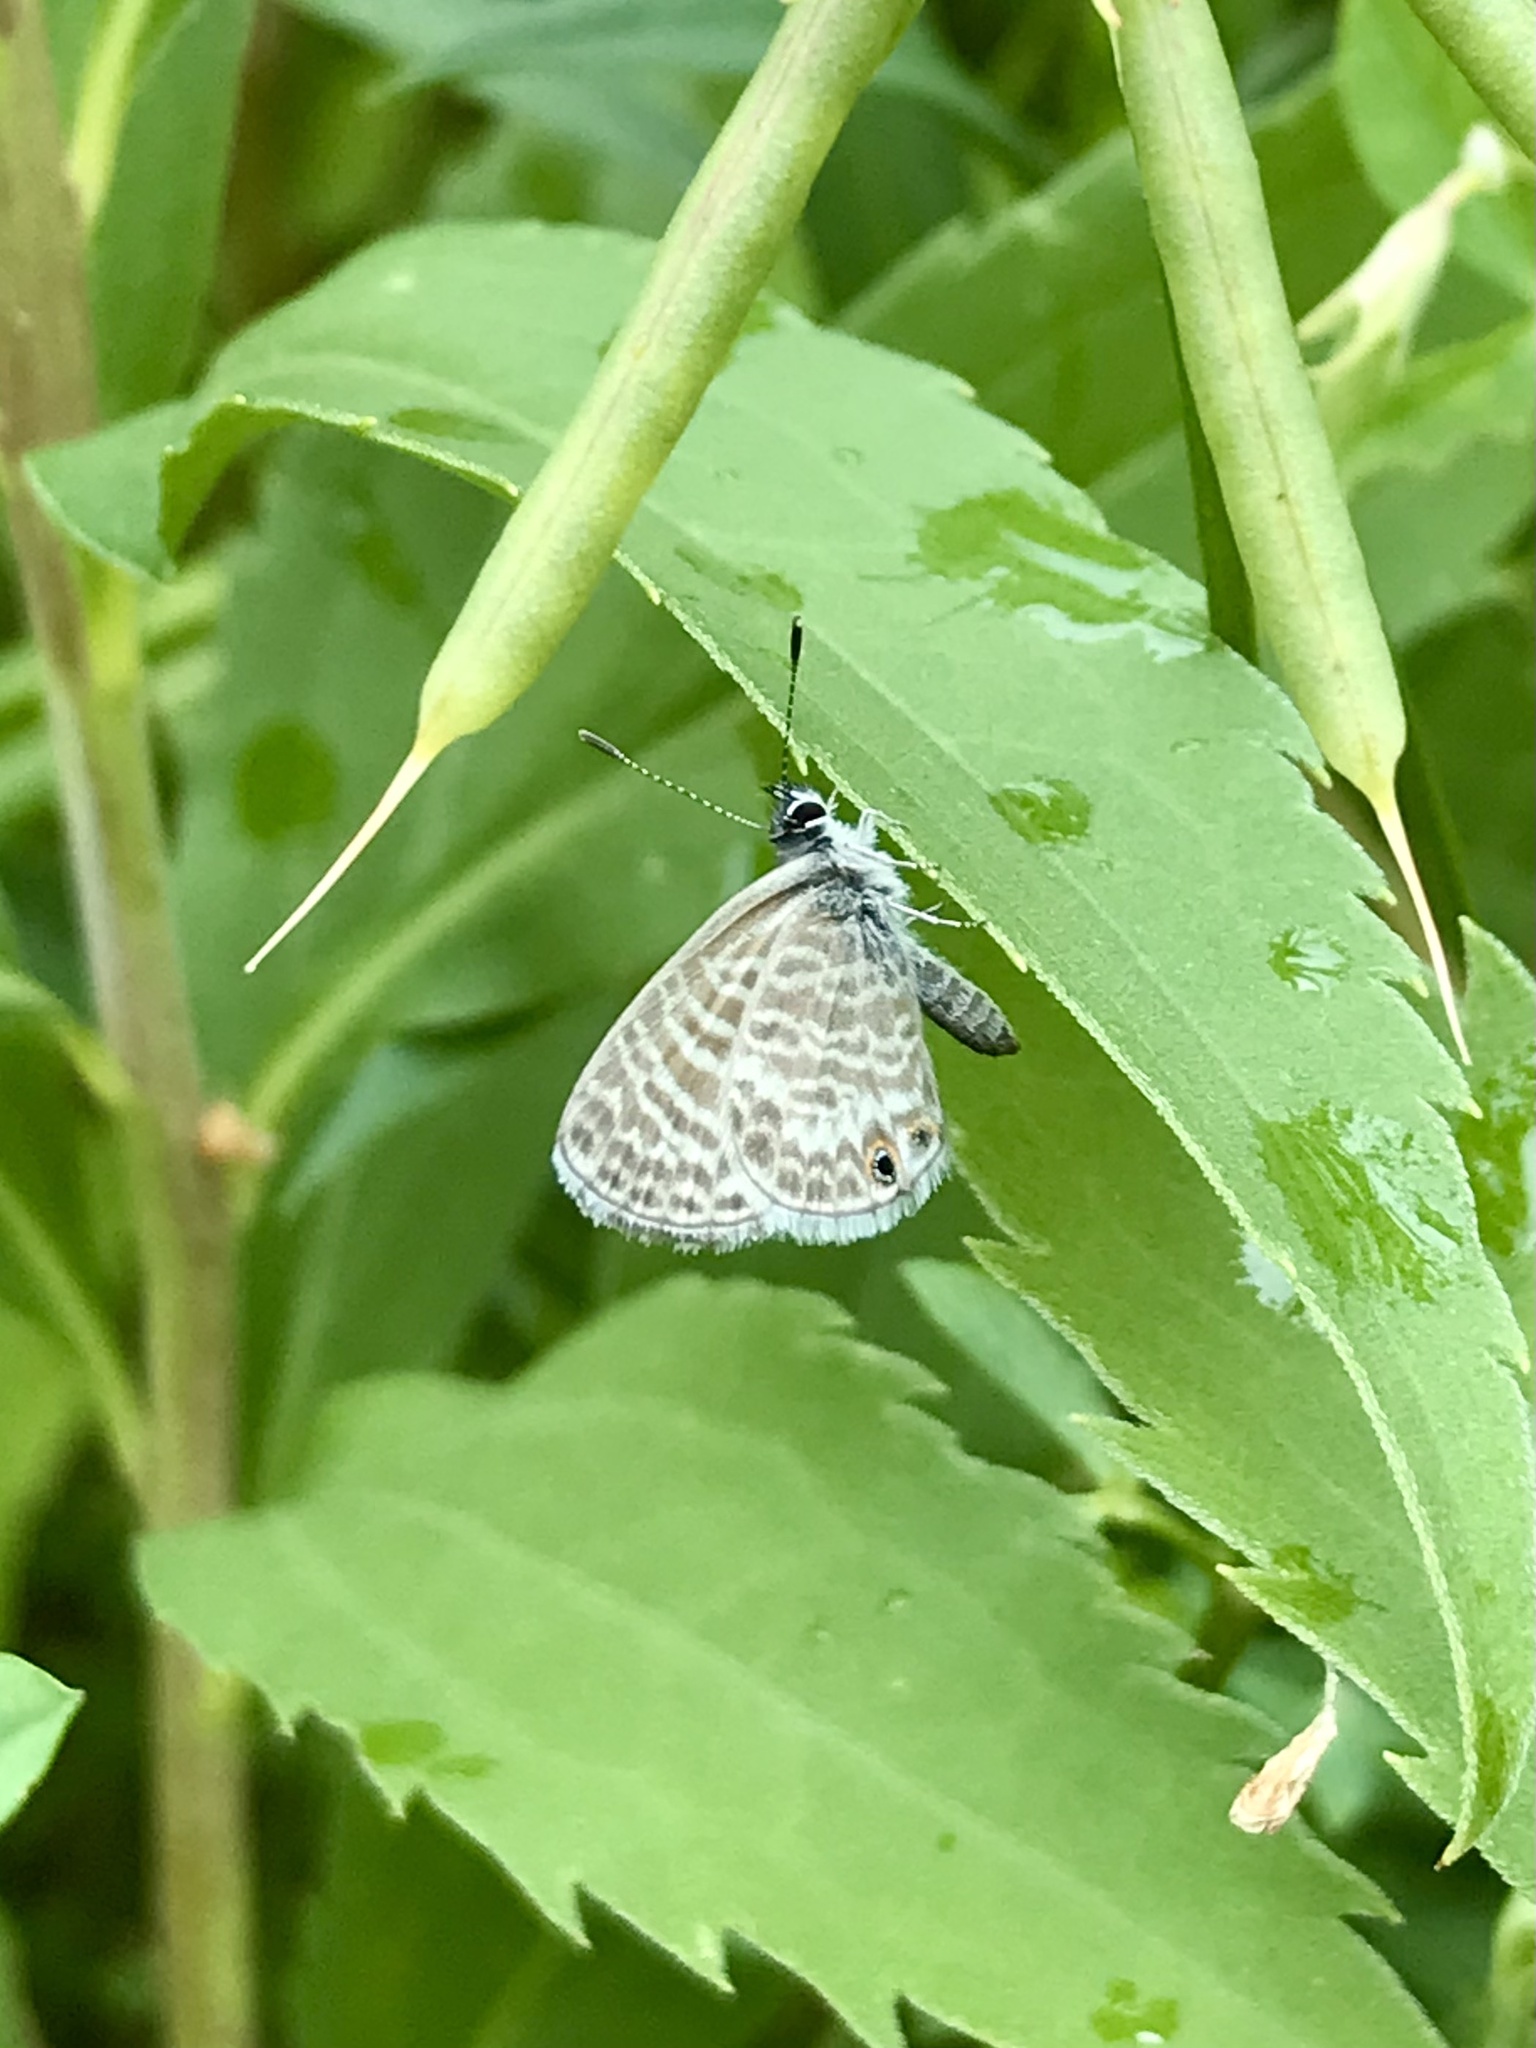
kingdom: Animalia
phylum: Arthropoda
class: Insecta
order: Lepidoptera
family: Lycaenidae
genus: Leptotes
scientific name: Leptotes marina
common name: Marine blue
